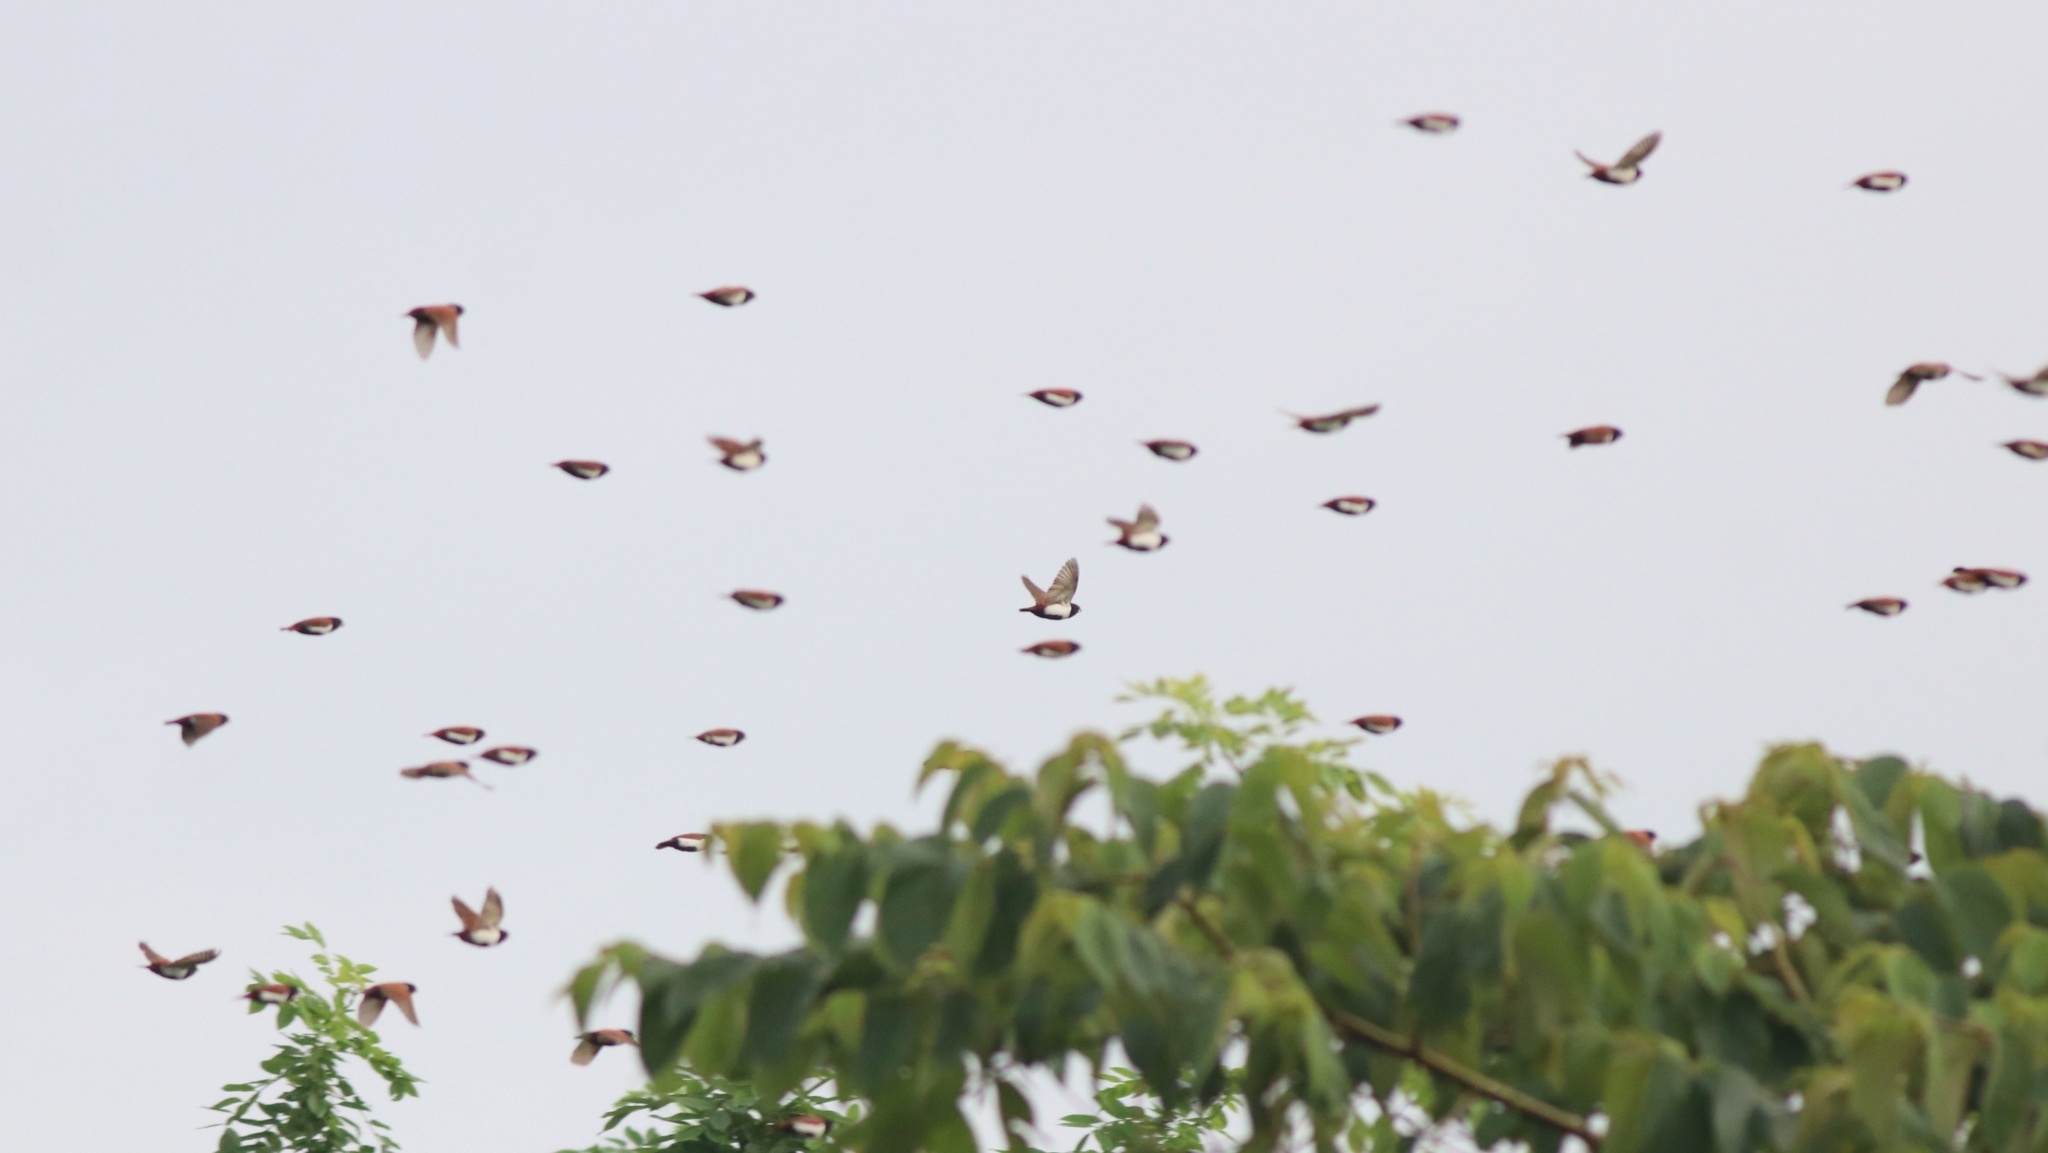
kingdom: Animalia
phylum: Chordata
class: Aves
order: Passeriformes
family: Estrildidae
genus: Lonchura
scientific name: Lonchura malacca
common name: Tricolored munia
